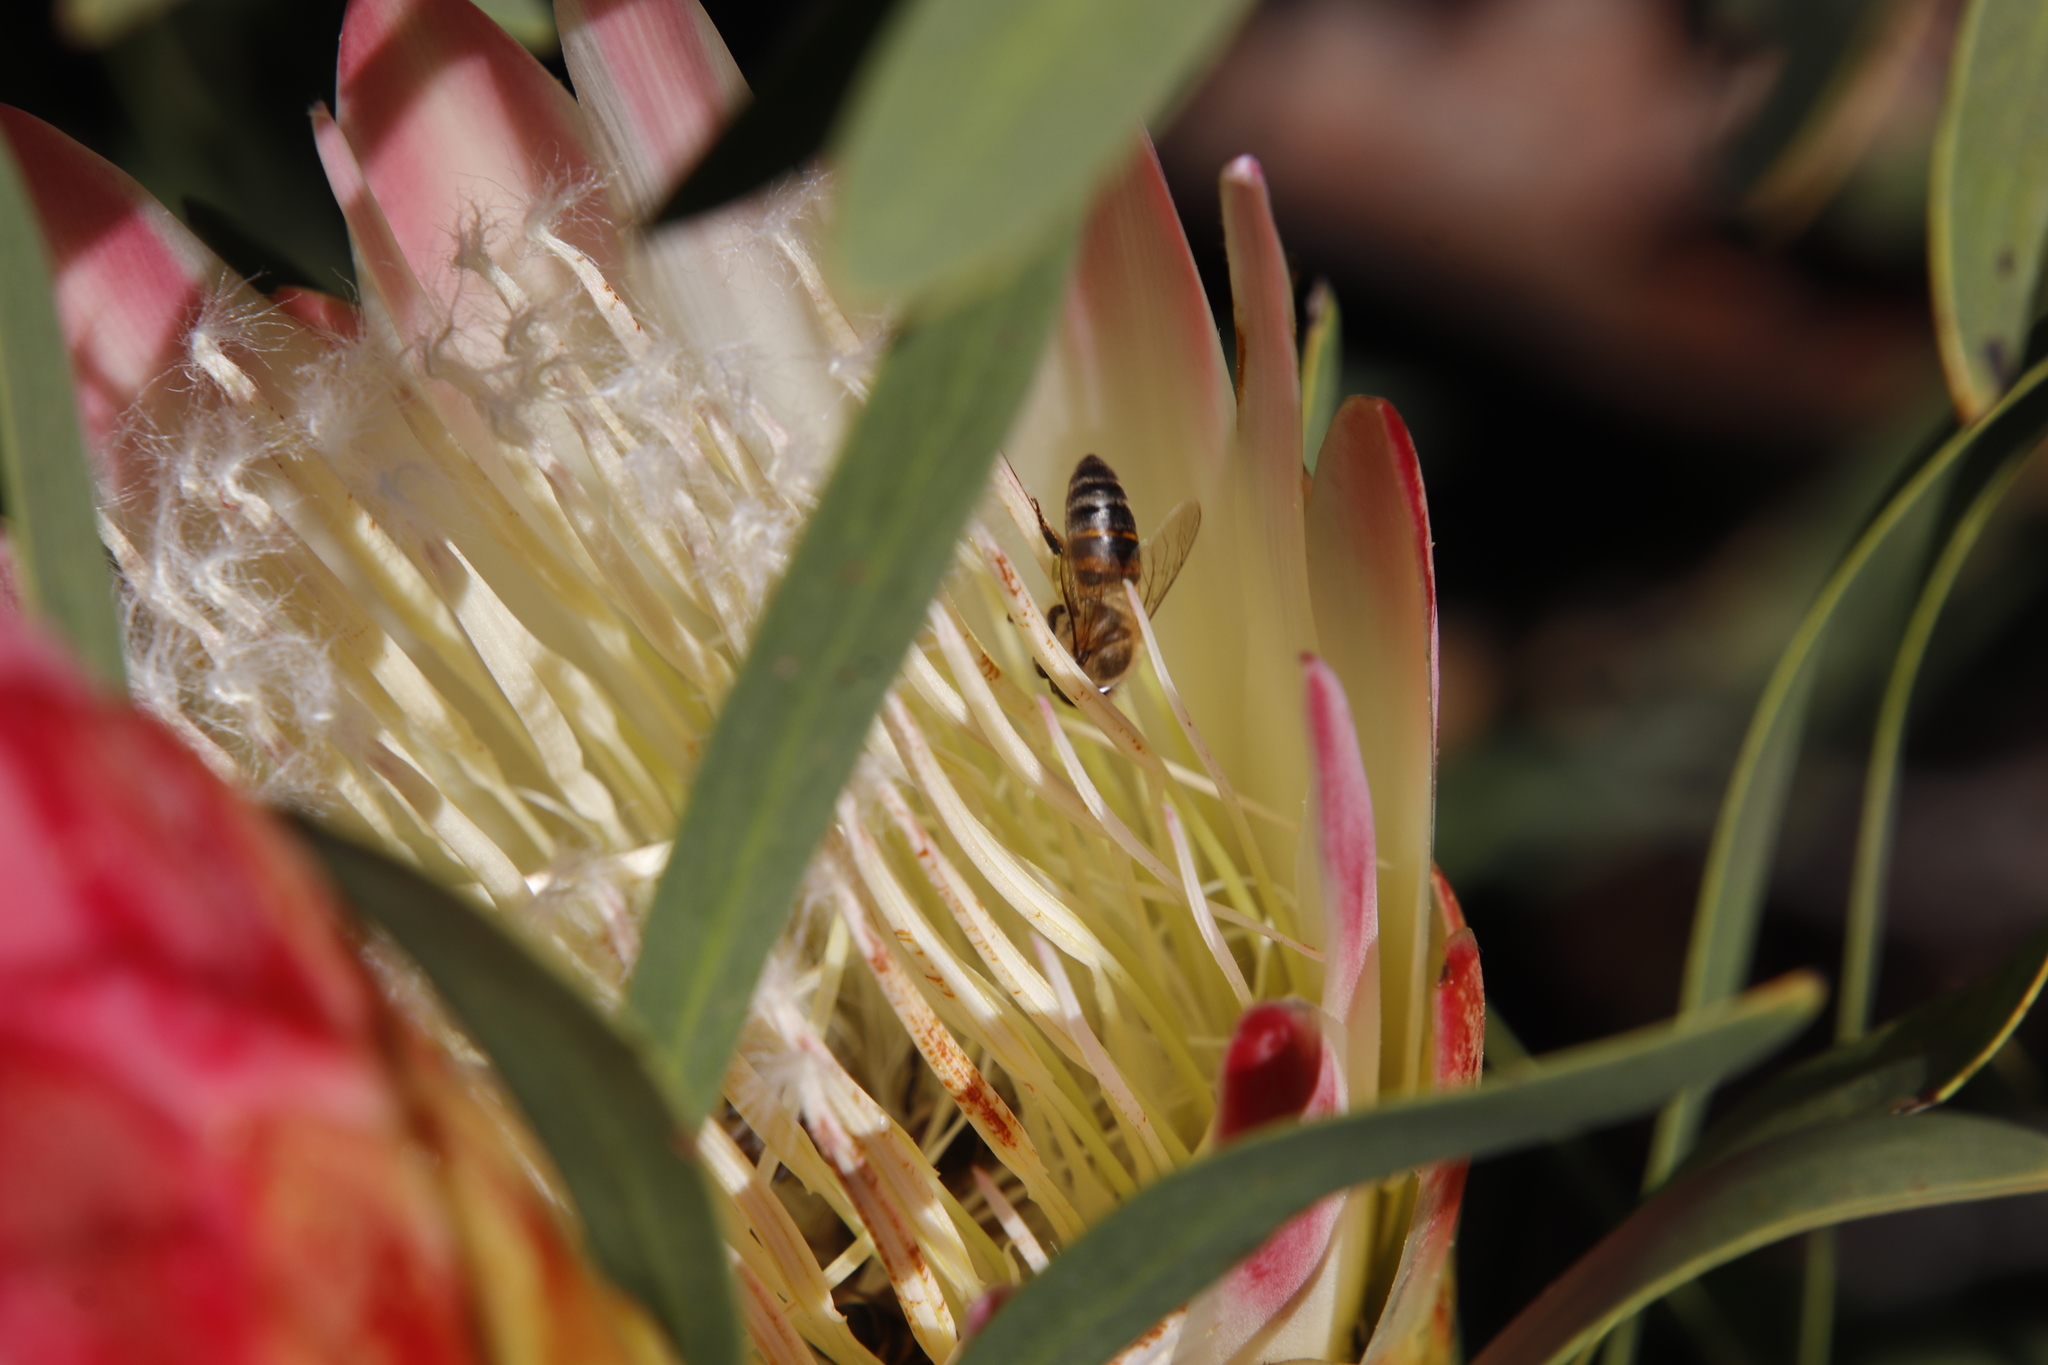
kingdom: Animalia
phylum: Arthropoda
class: Insecta
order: Hymenoptera
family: Apidae
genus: Apis
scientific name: Apis mellifera
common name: Honey bee
